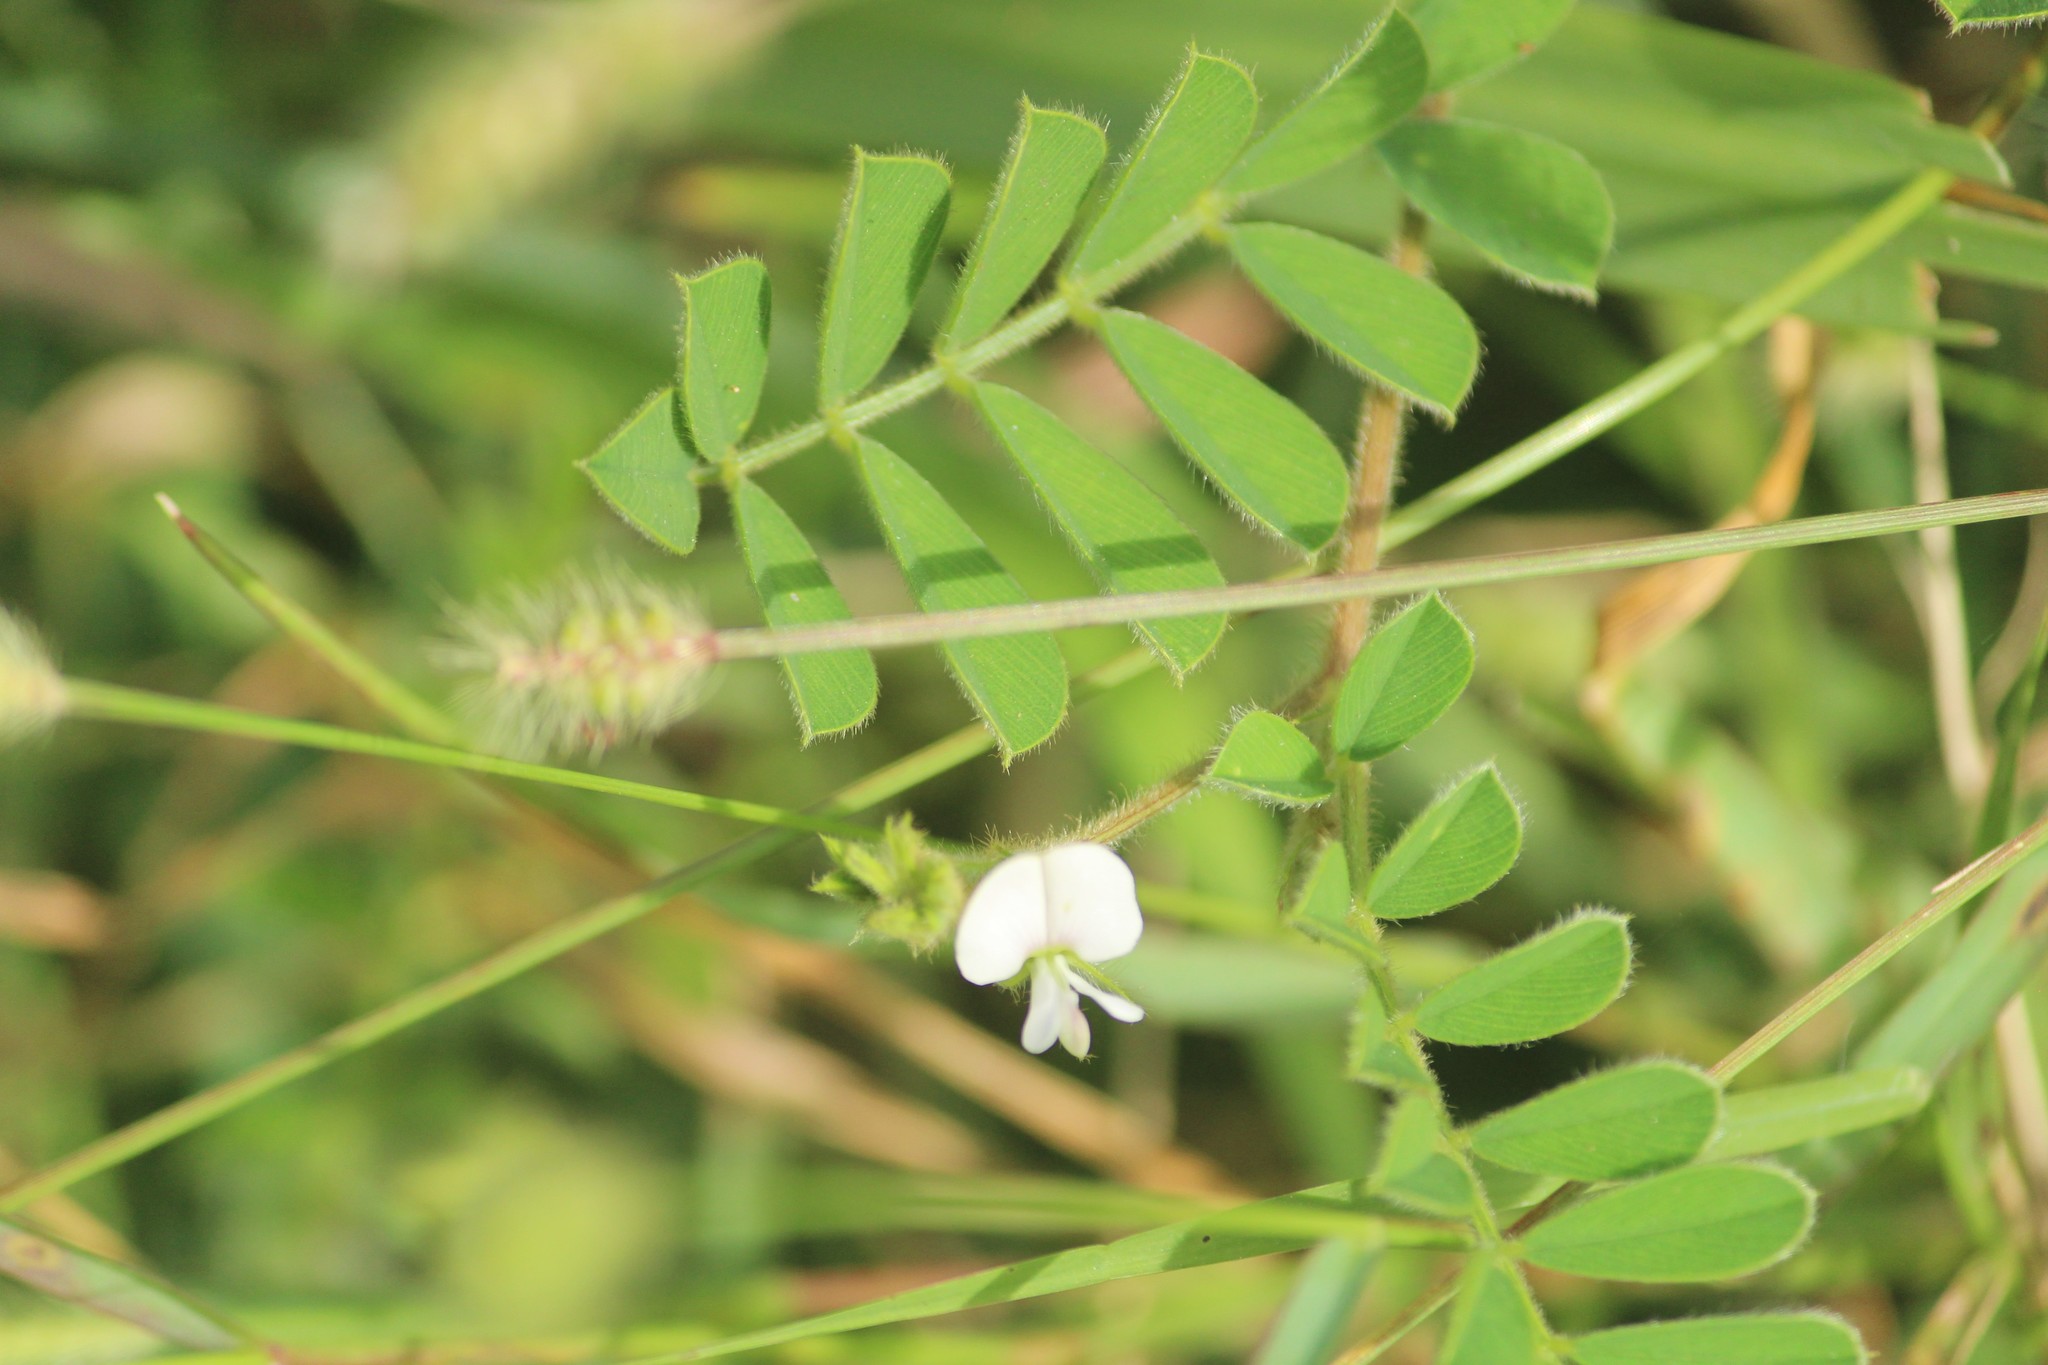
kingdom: Plantae
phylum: Tracheophyta
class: Magnoliopsida
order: Fabales
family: Fabaceae
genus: Tephrosia
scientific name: Tephrosia pumila
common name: Indigo sauvage
